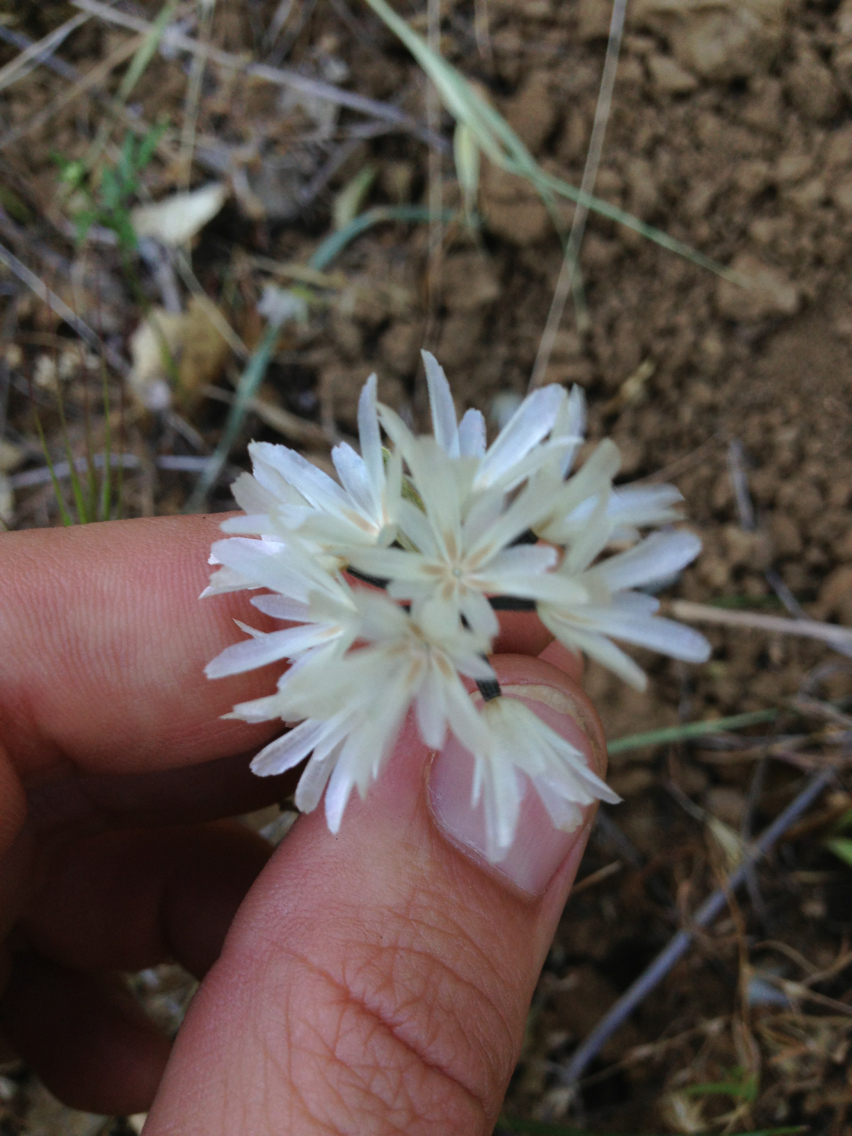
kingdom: Plantae
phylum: Tracheophyta
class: Magnoliopsida
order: Asterales
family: Asteraceae
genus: Achyrachaena
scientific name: Achyrachaena mollis
